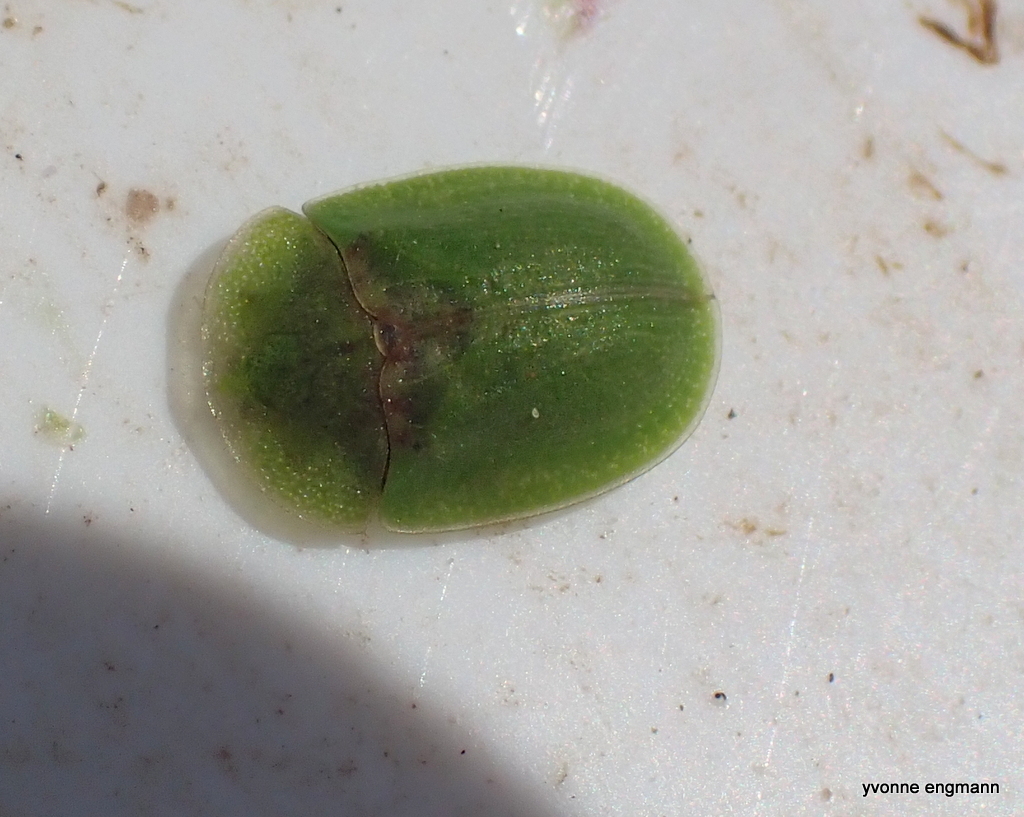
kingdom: Animalia
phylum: Arthropoda
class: Insecta
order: Coleoptera
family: Chrysomelidae
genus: Cassida
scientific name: Cassida rubiginosa
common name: Thistle tortoise beetle
